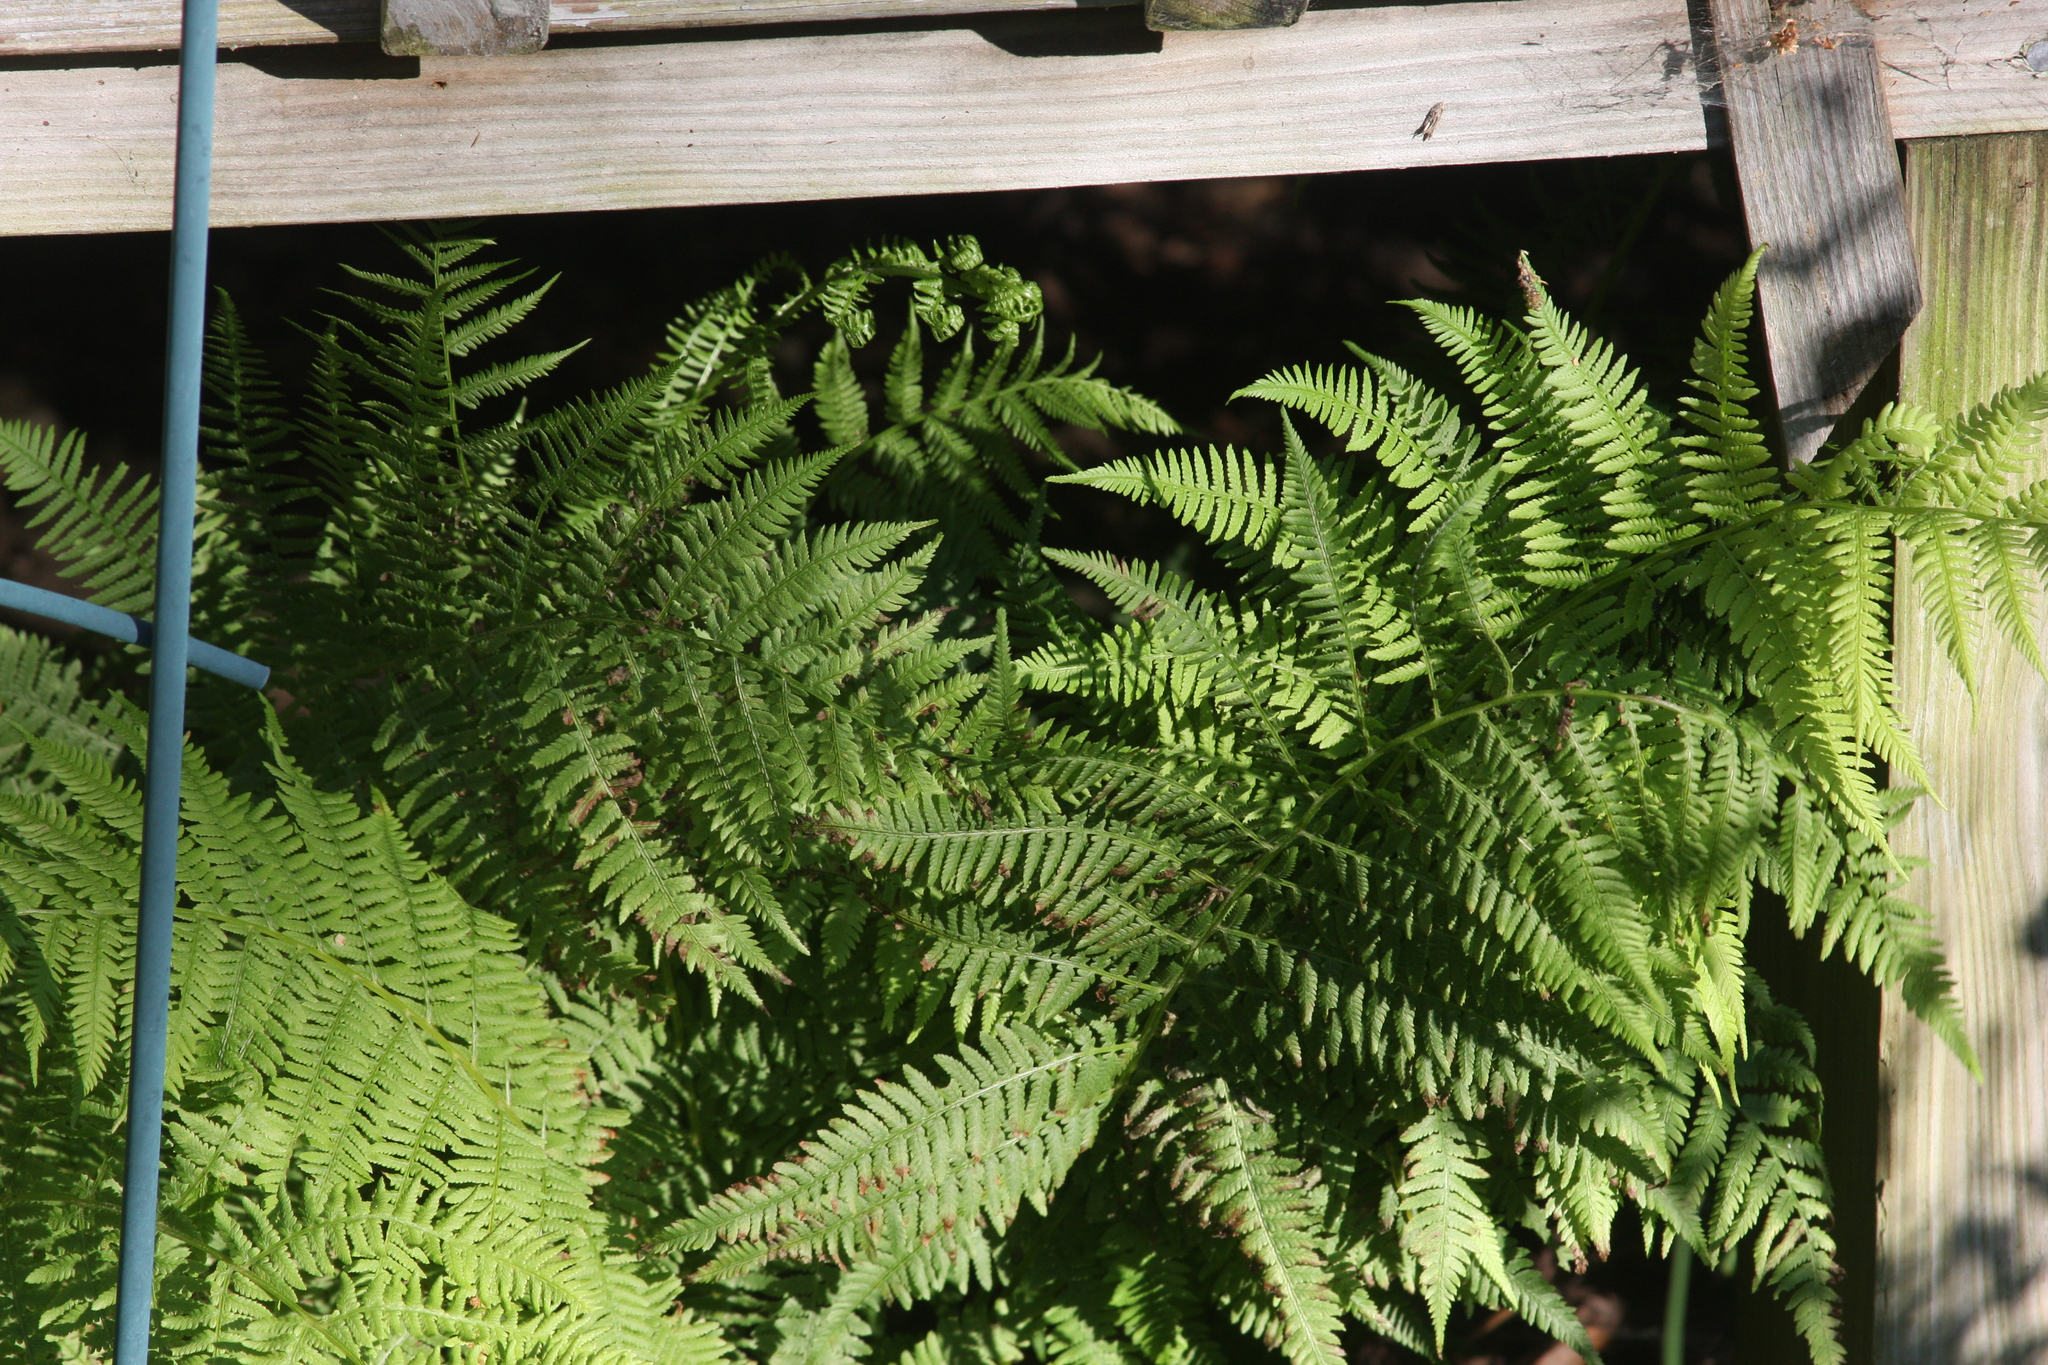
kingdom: Plantae
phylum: Tracheophyta
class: Polypodiopsida
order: Polypodiales
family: Athyriaceae
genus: Athyrium
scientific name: Athyrium angustum
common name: Northern lady fern
